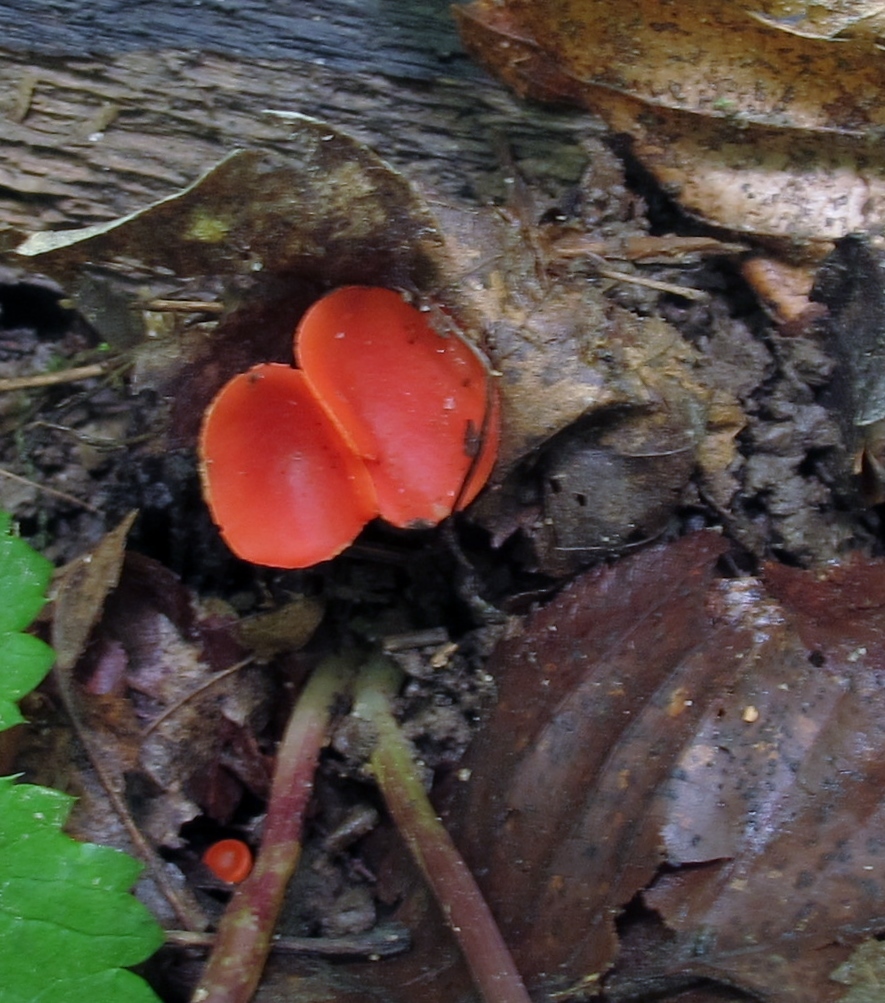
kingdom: Fungi
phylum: Ascomycota
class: Pezizomycetes
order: Pezizales
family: Sarcoscyphaceae
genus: Sarcoscypha
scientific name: Sarcoscypha occidentalis
